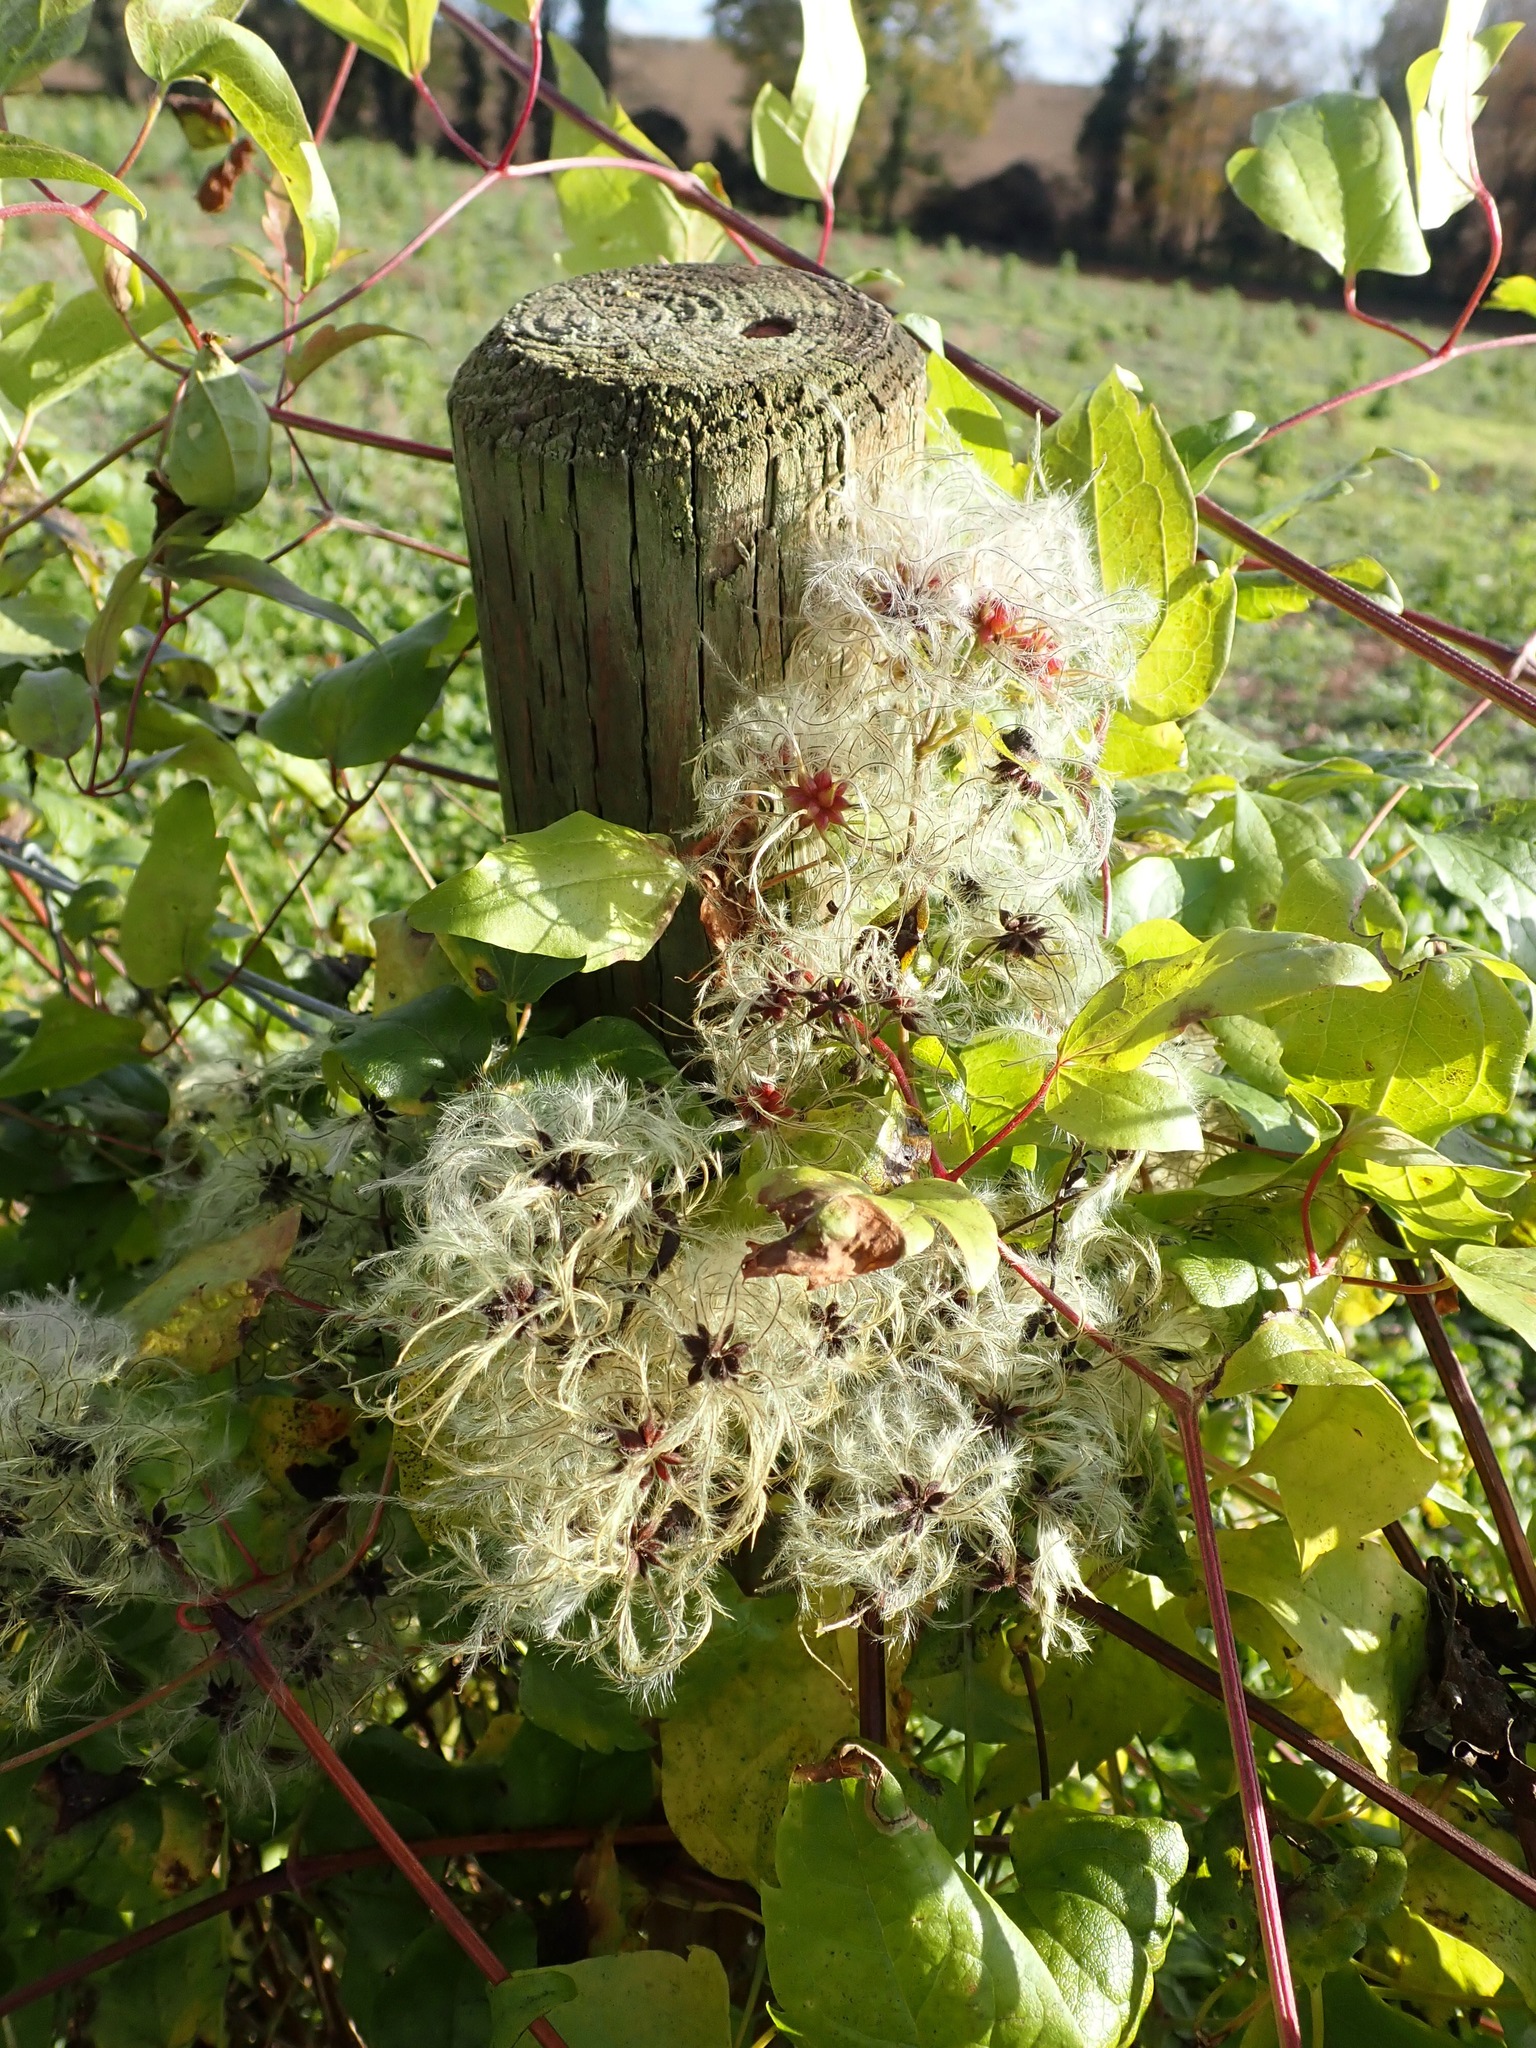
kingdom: Plantae
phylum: Tracheophyta
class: Magnoliopsida
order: Ranunculales
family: Ranunculaceae
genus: Clematis
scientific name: Clematis vitalba
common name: Evergreen clematis
